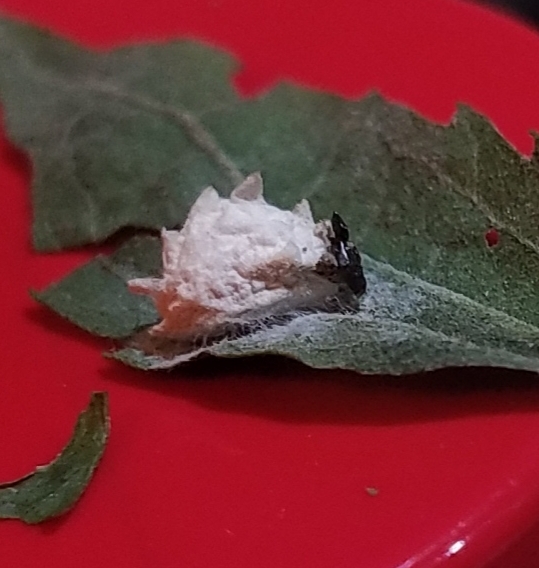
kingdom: Animalia
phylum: Arthropoda
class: Insecta
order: Lepidoptera
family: Epipyropidae
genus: Fulgoraecia
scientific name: Fulgoraecia exigua
